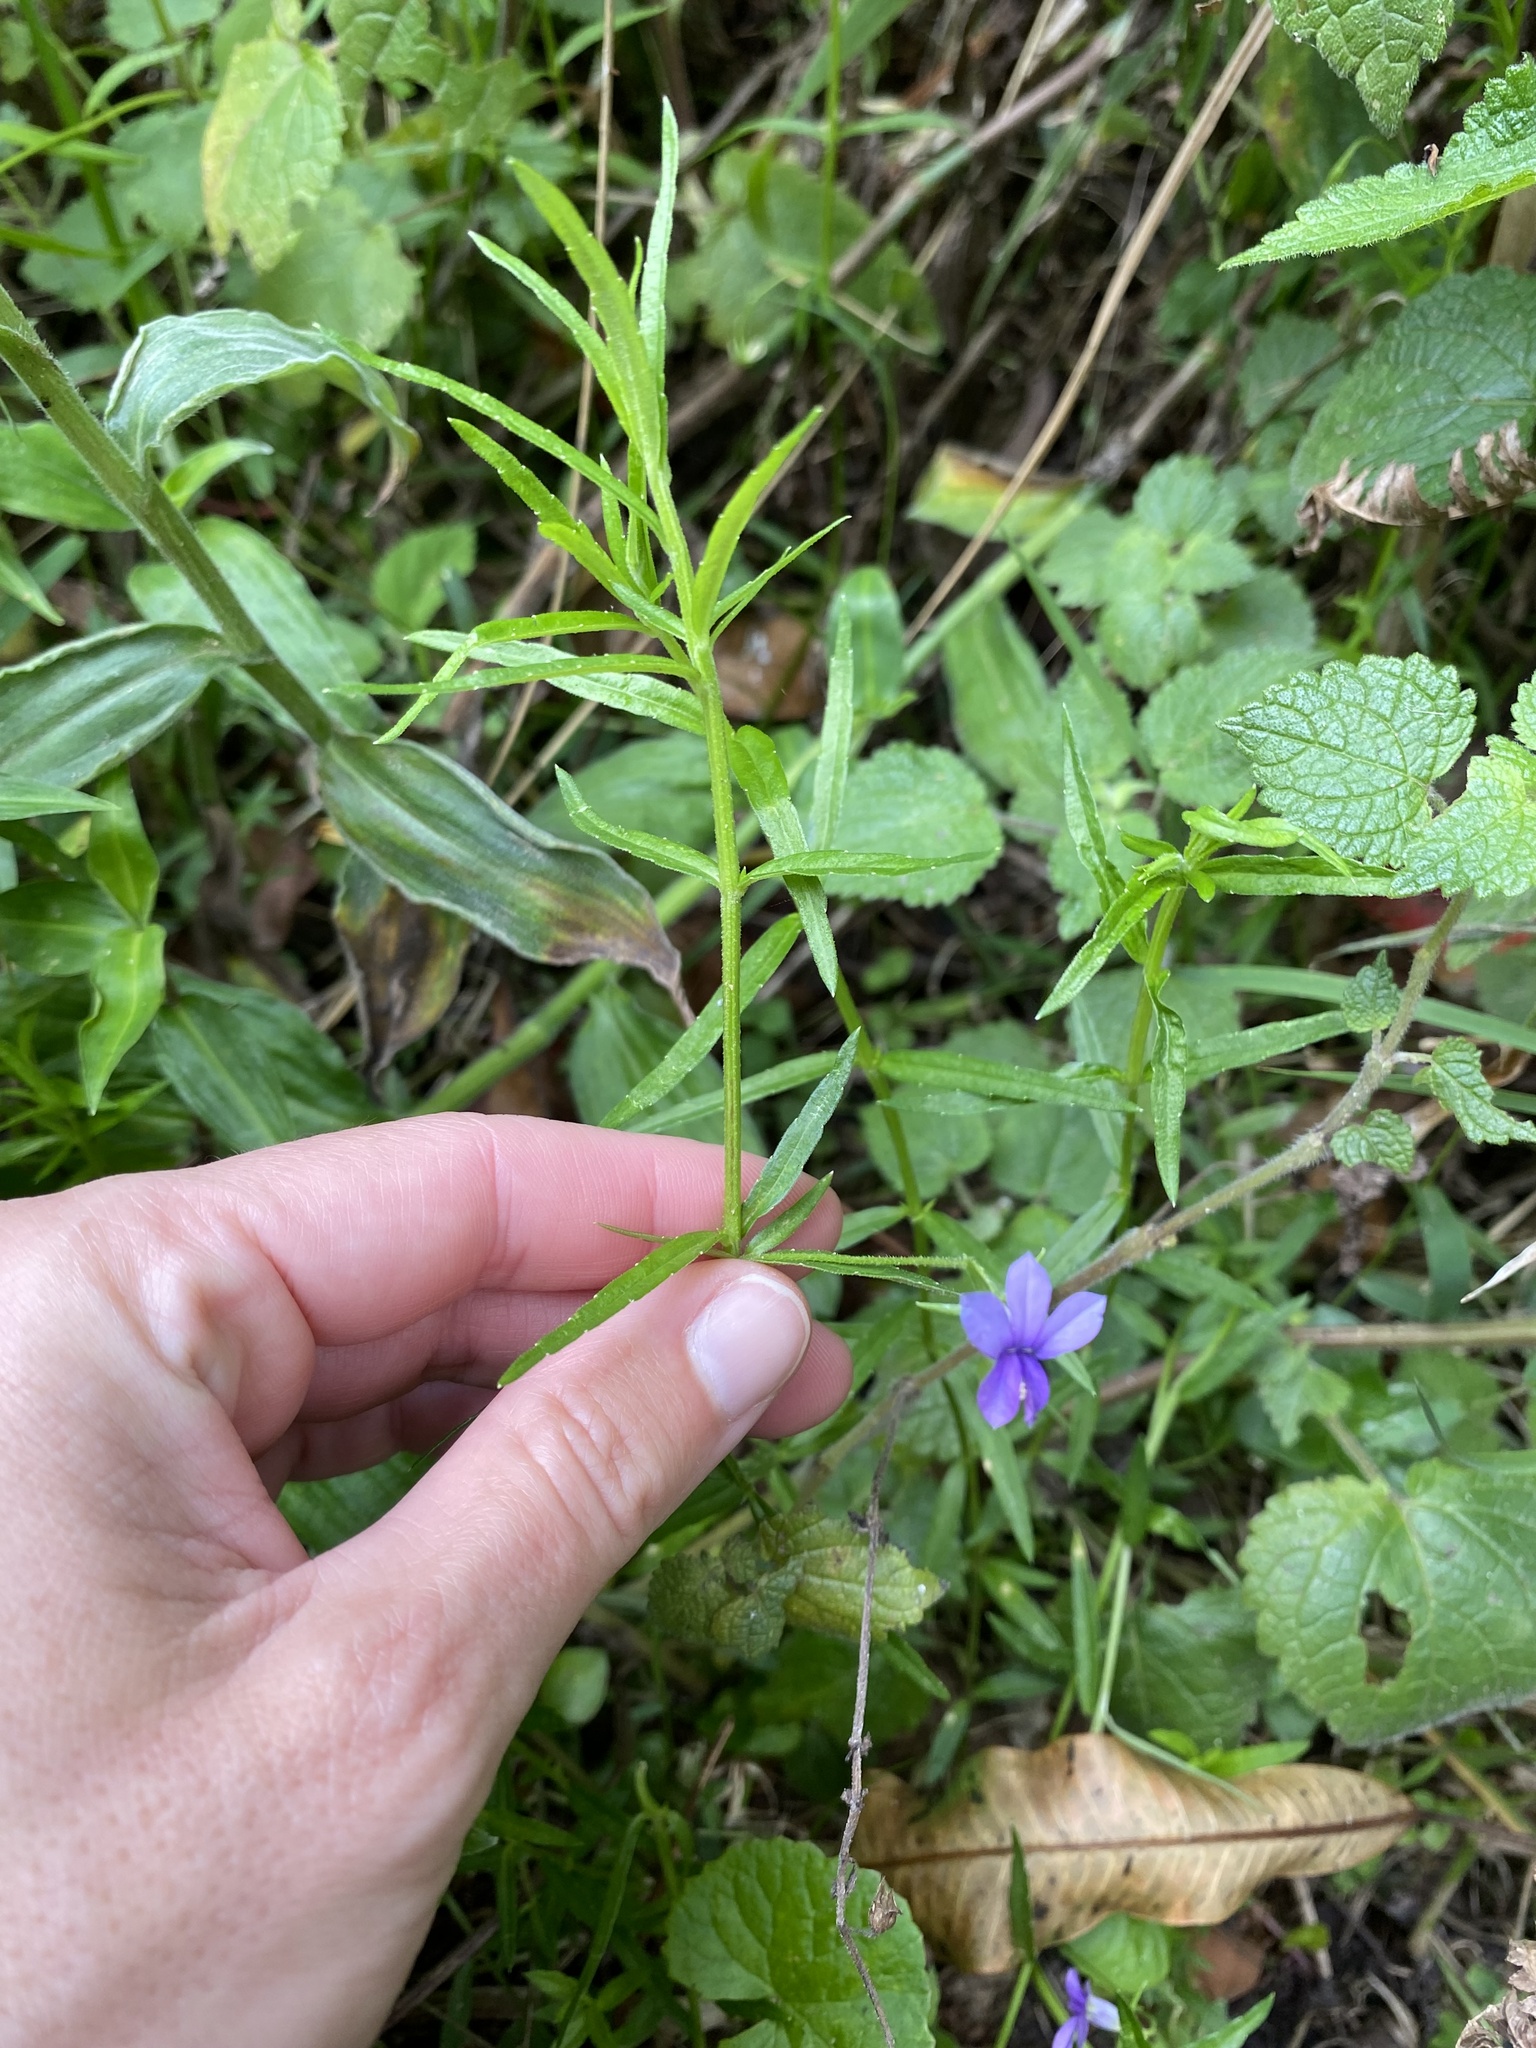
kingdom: Plantae
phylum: Tracheophyta
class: Magnoliopsida
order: Asterales
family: Campanulaceae
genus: Monopsis
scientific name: Monopsis stellarioides
